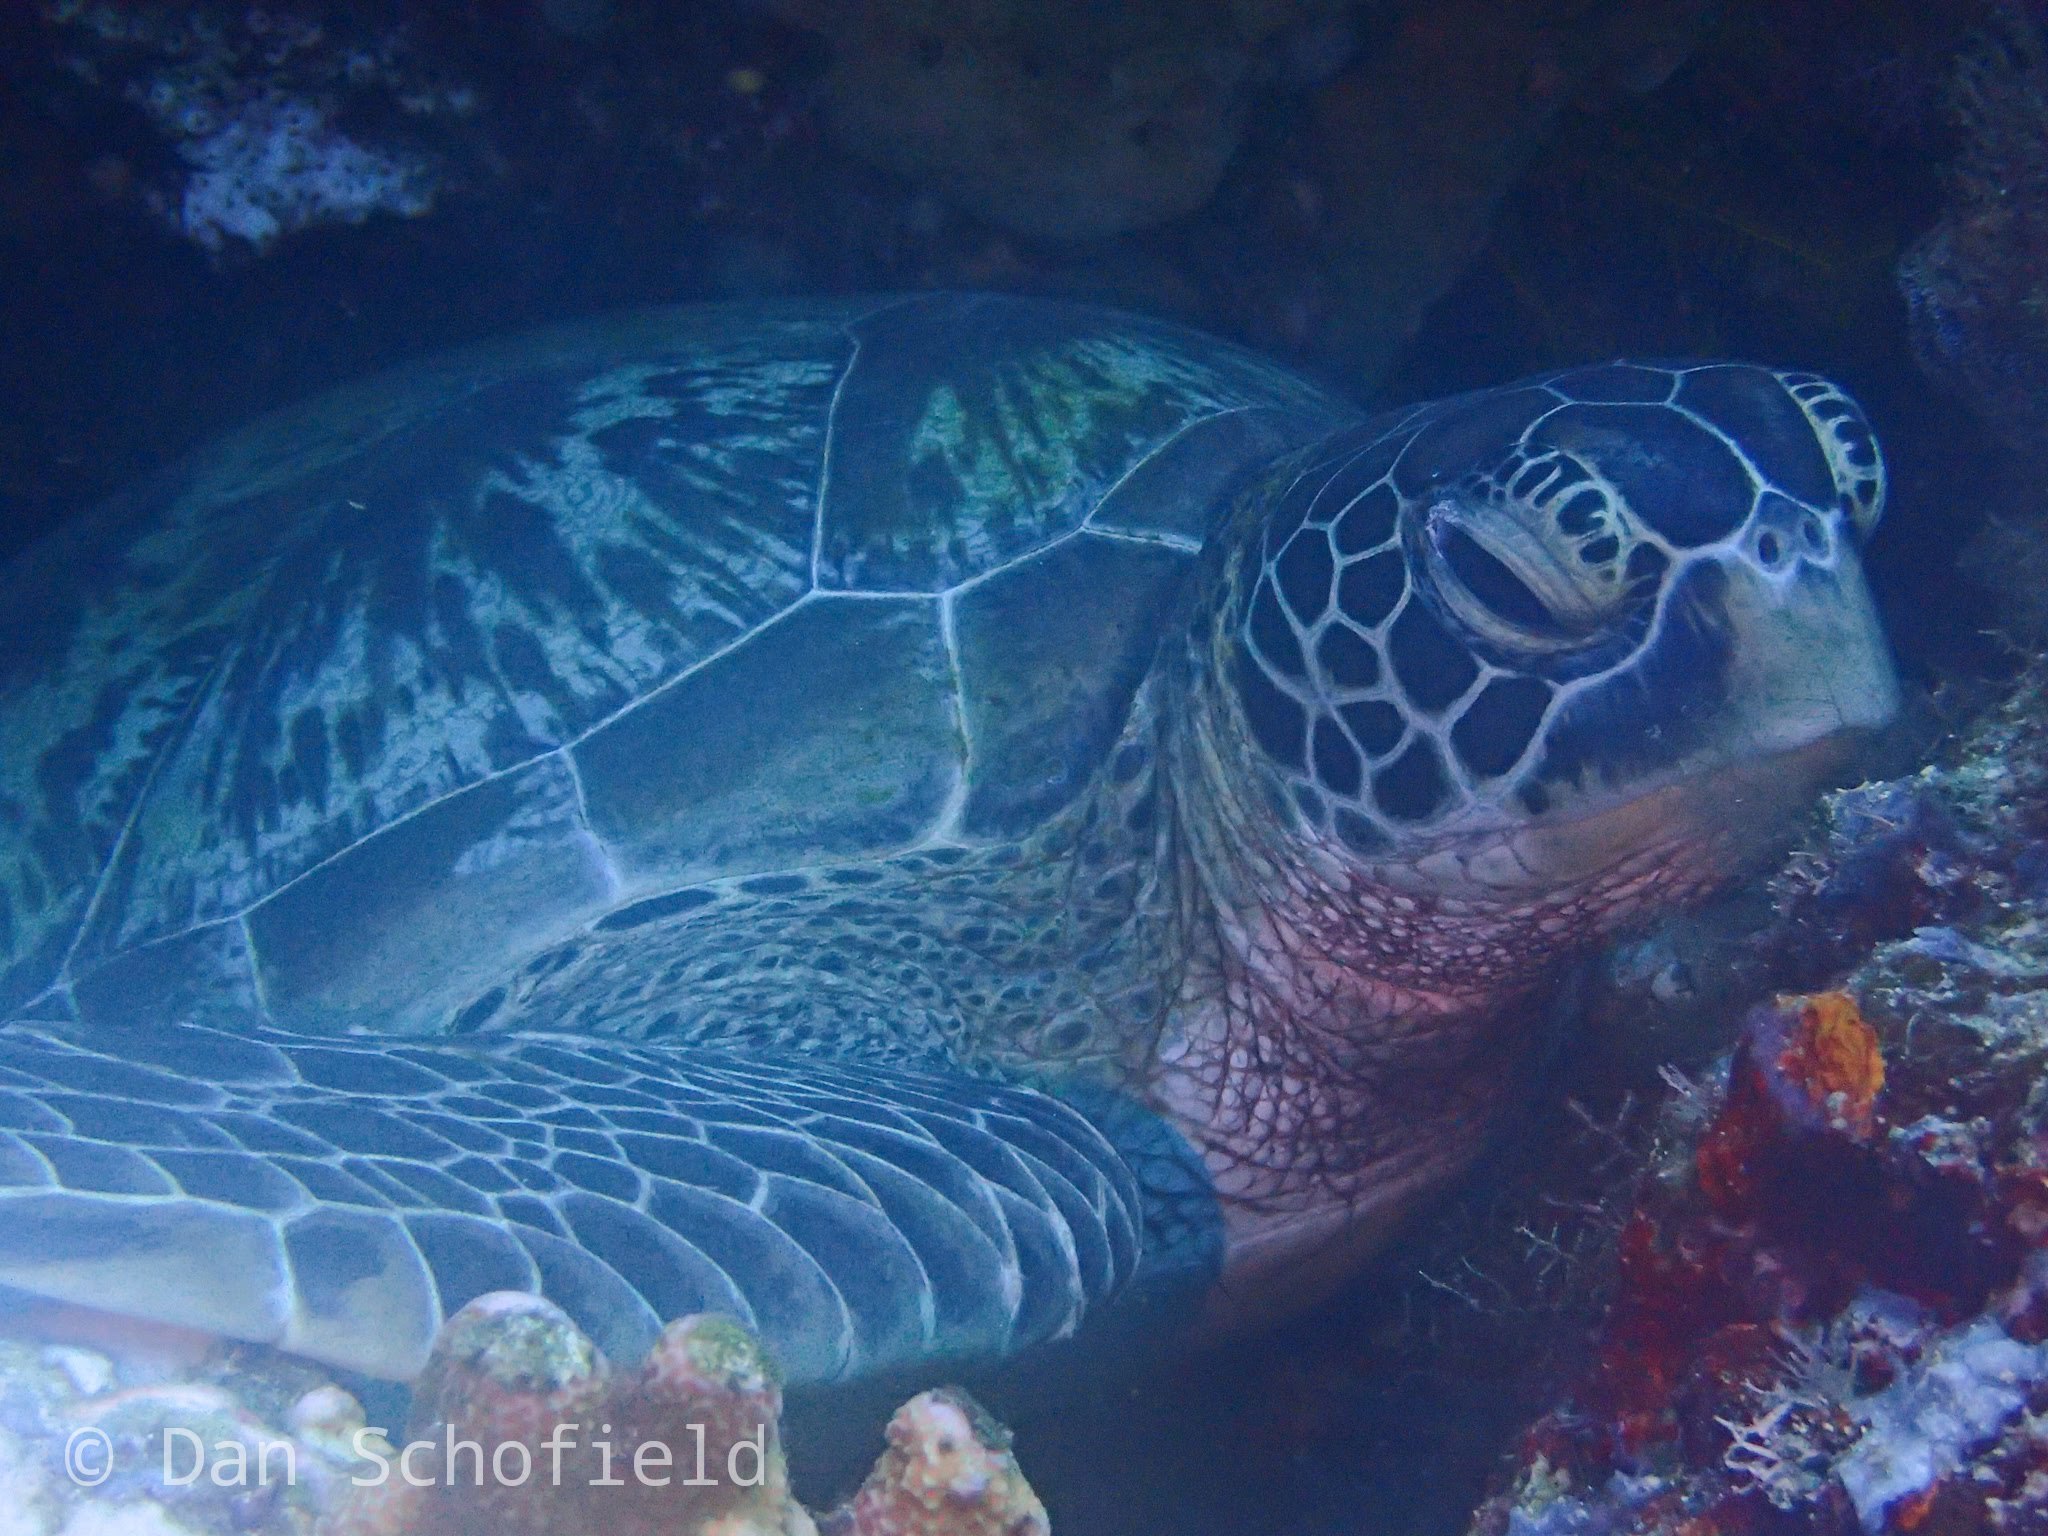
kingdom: Animalia
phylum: Chordata
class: Testudines
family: Cheloniidae
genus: Chelonia
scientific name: Chelonia mydas
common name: Green turtle
